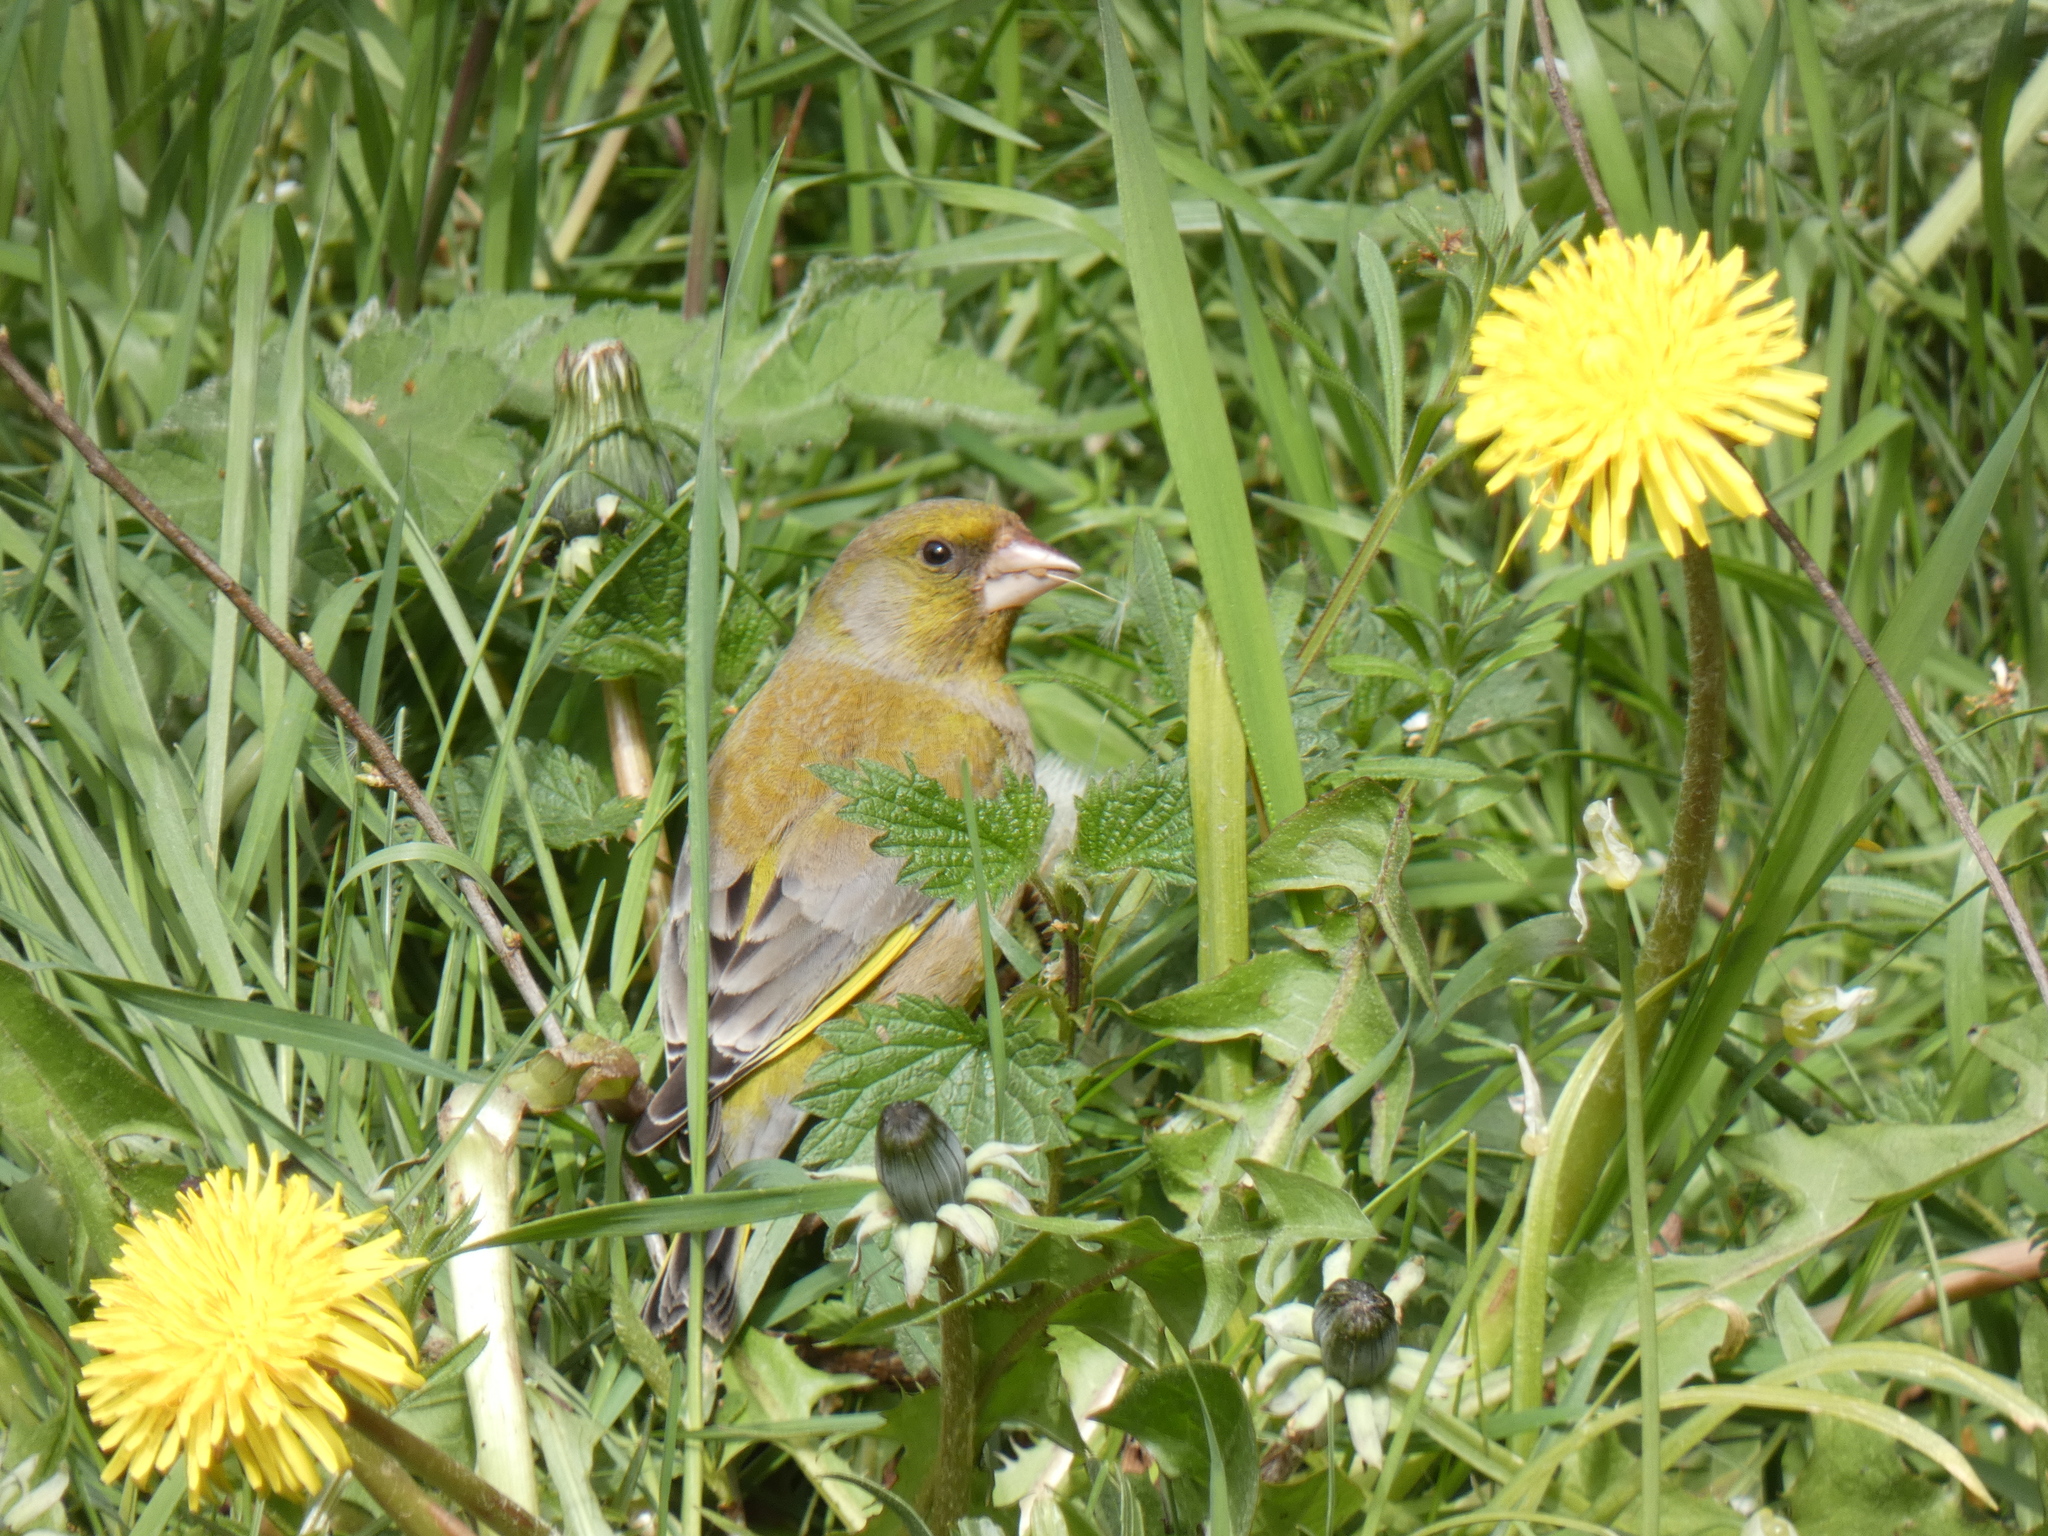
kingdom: Plantae
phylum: Tracheophyta
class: Liliopsida
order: Poales
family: Poaceae
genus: Chloris
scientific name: Chloris chloris
